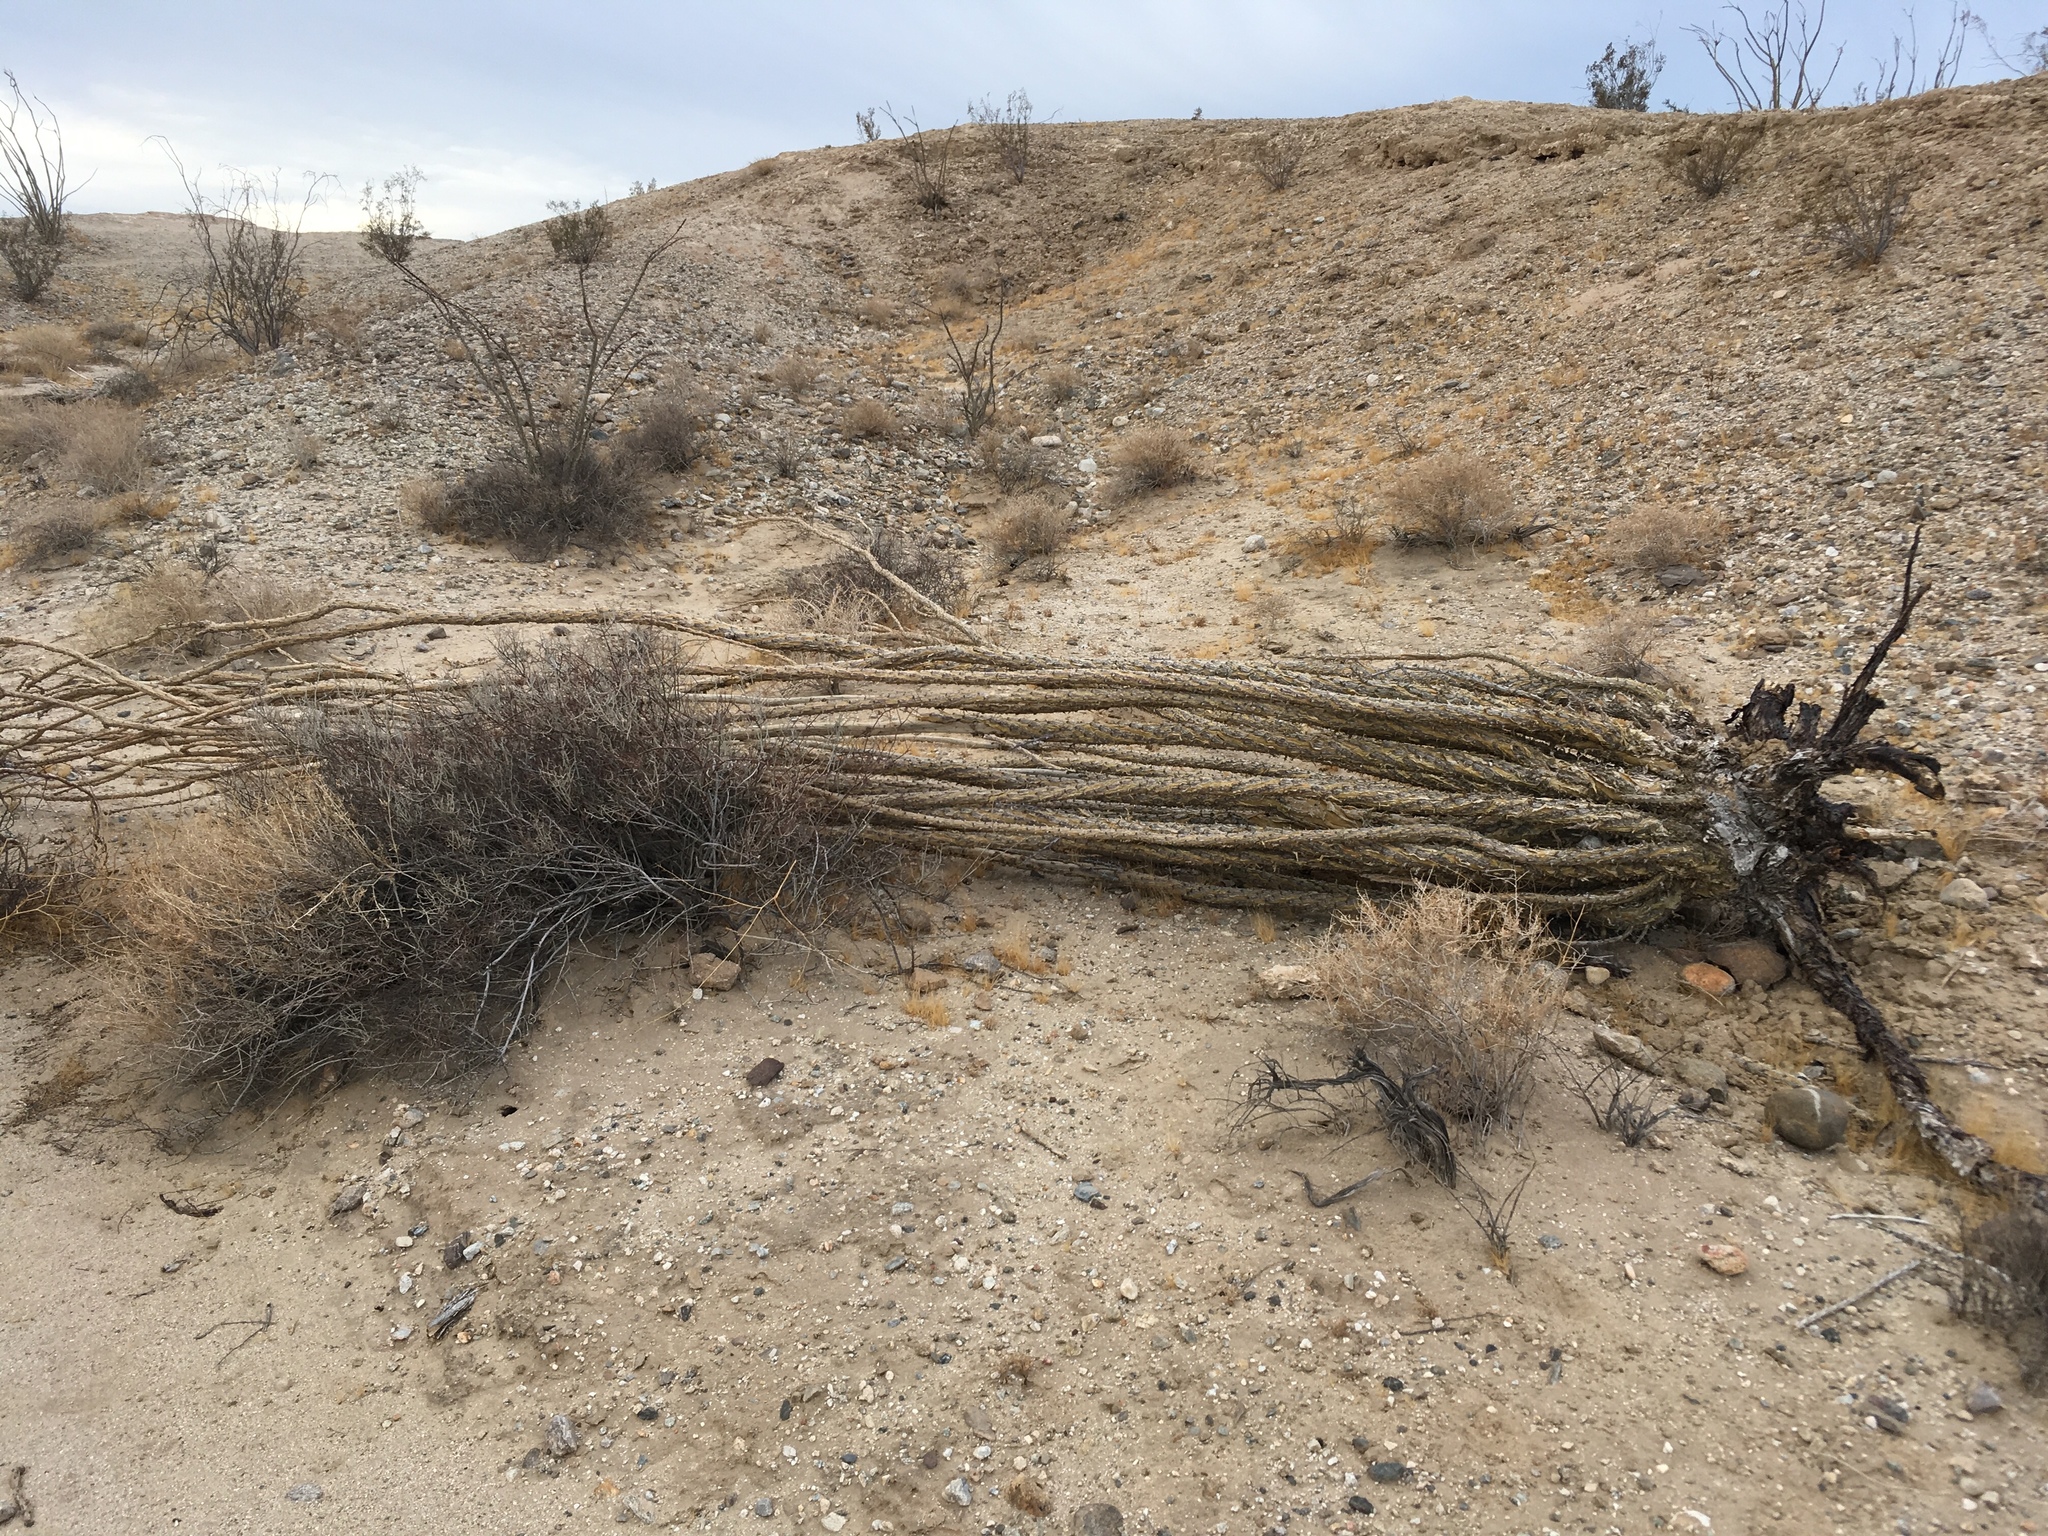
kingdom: Plantae
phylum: Tracheophyta
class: Magnoliopsida
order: Ericales
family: Fouquieriaceae
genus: Fouquieria
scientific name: Fouquieria splendens
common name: Vine-cactus
